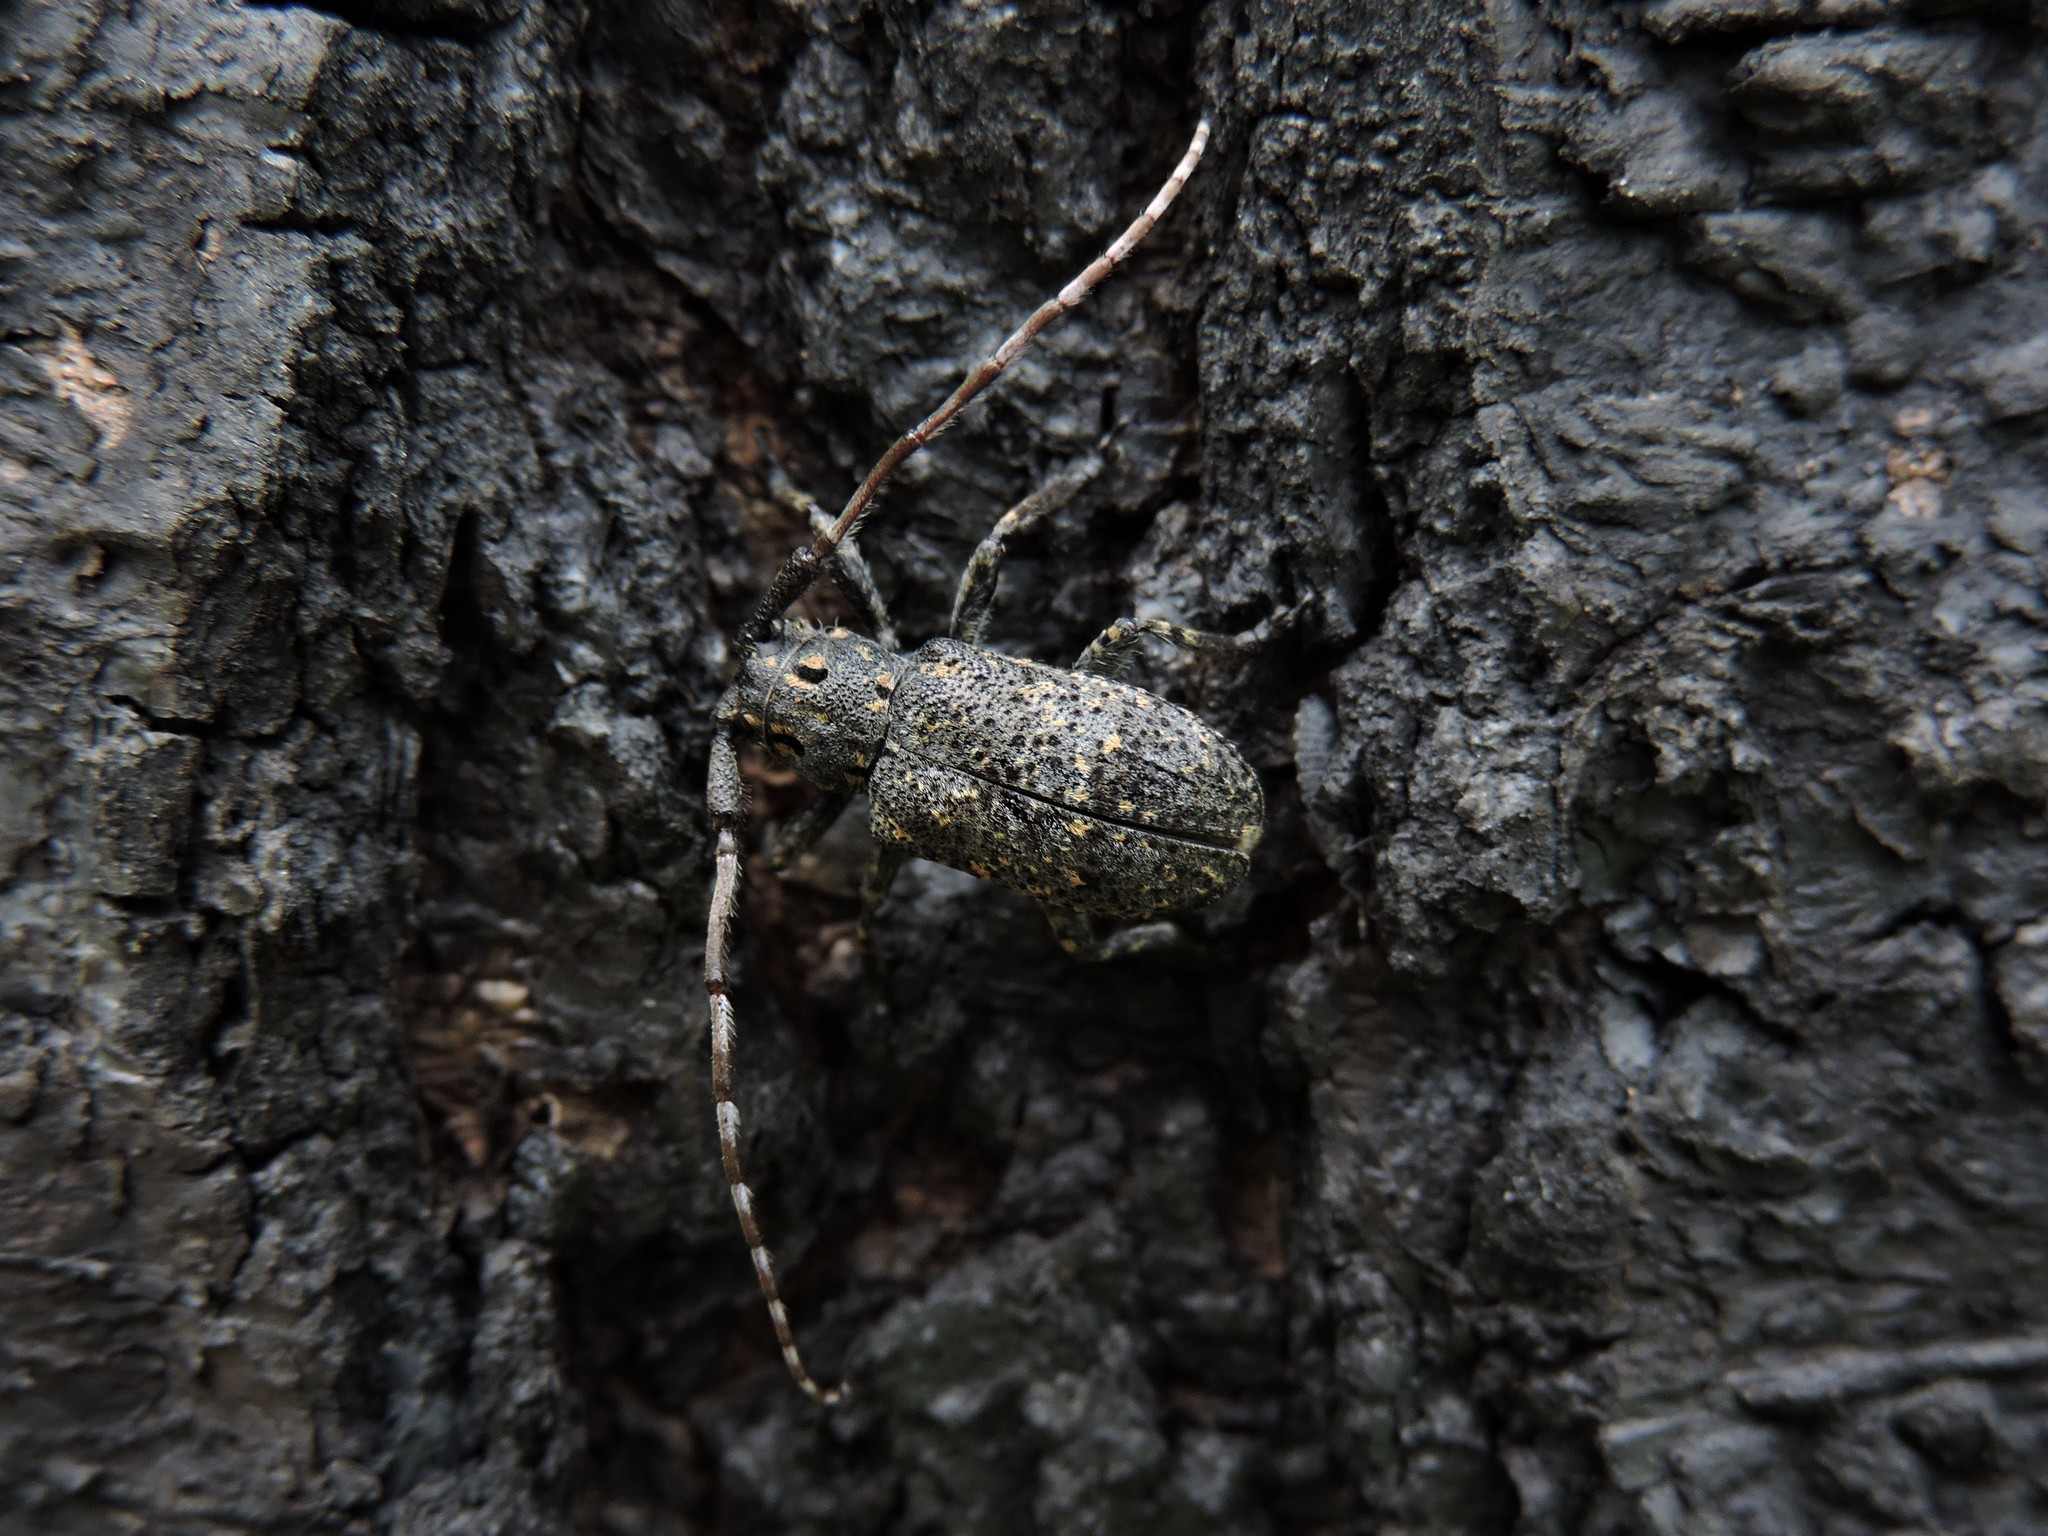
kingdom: Animalia
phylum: Arthropoda
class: Insecta
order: Coleoptera
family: Cerambycidae
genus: Mesosa
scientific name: Mesosa myops
